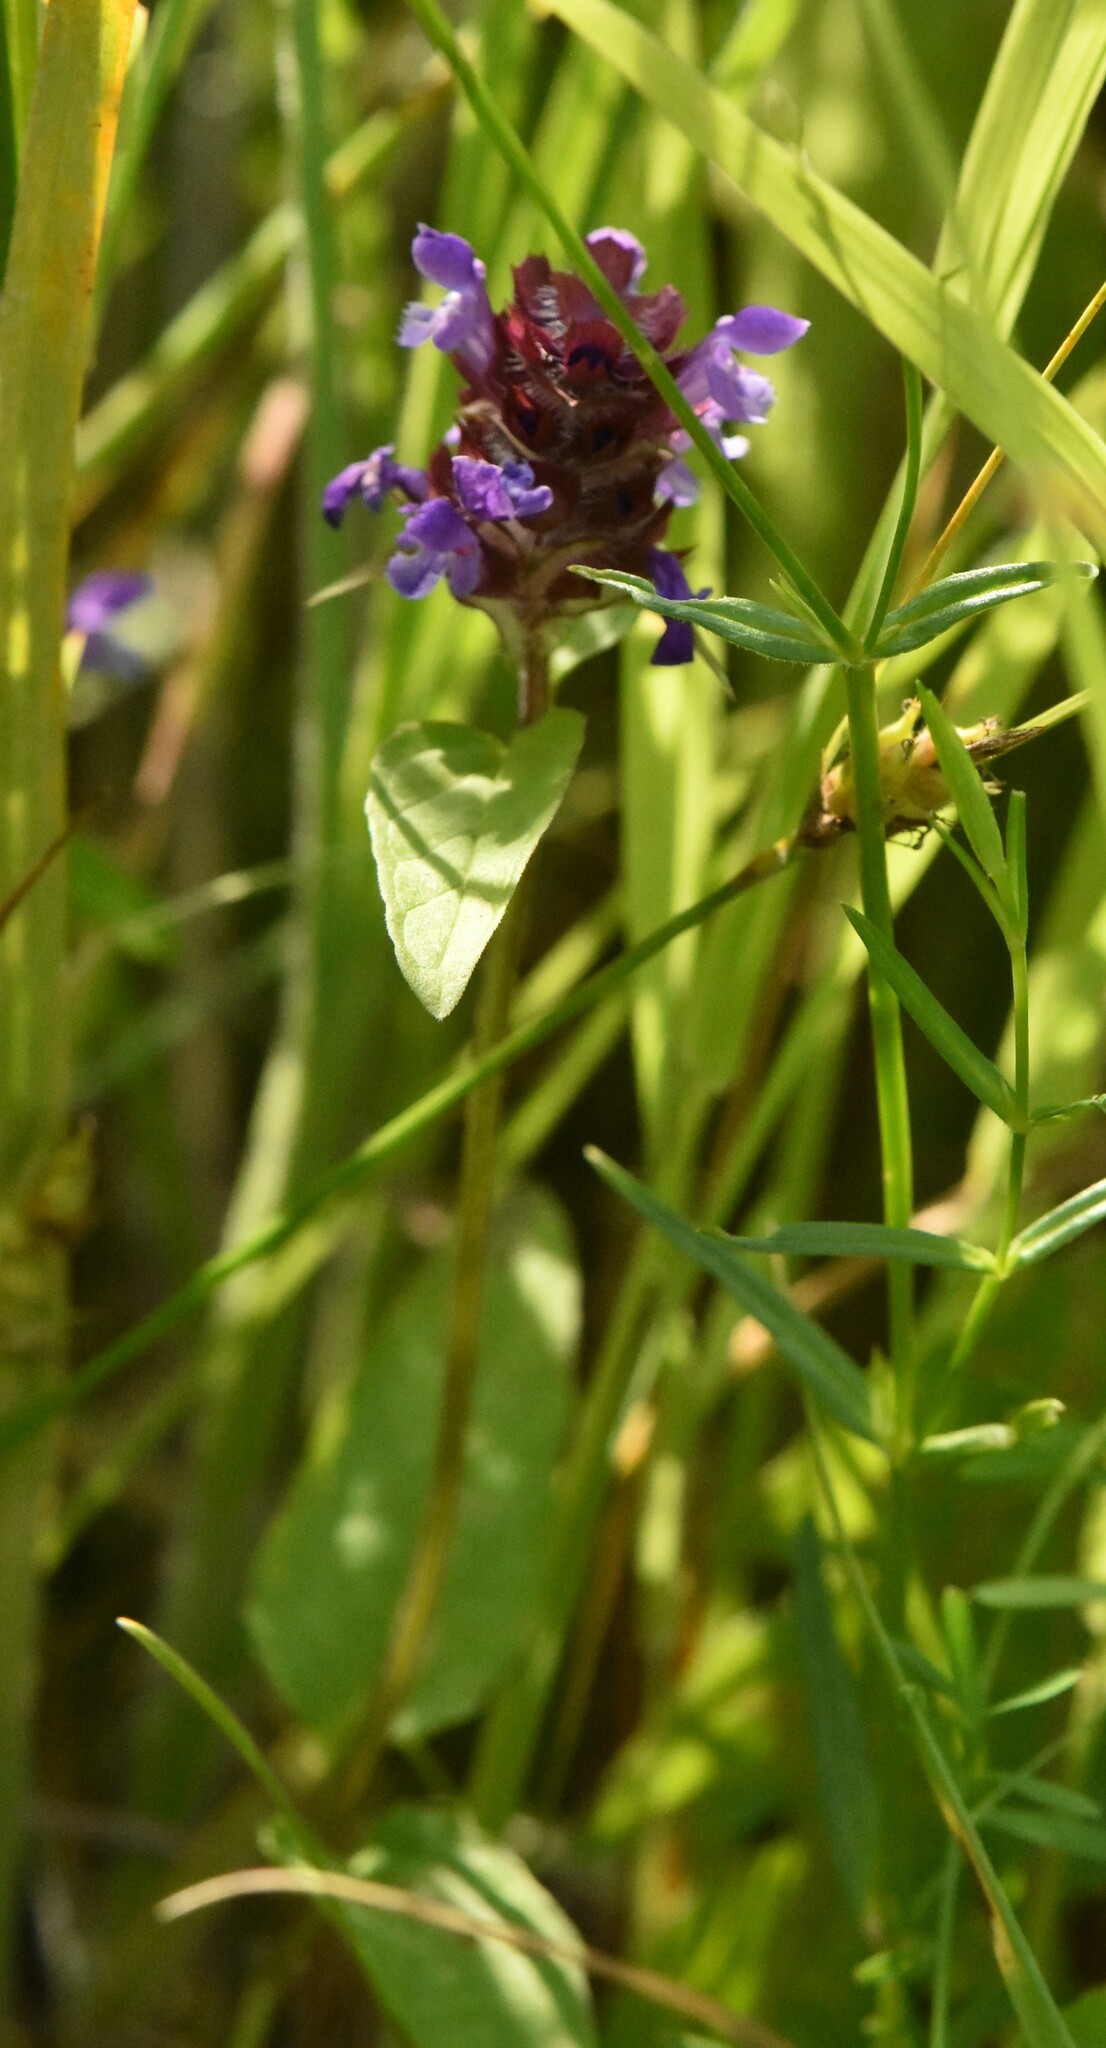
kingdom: Plantae
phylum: Tracheophyta
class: Magnoliopsida
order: Lamiales
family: Lamiaceae
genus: Prunella
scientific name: Prunella vulgaris
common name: Heal-all
